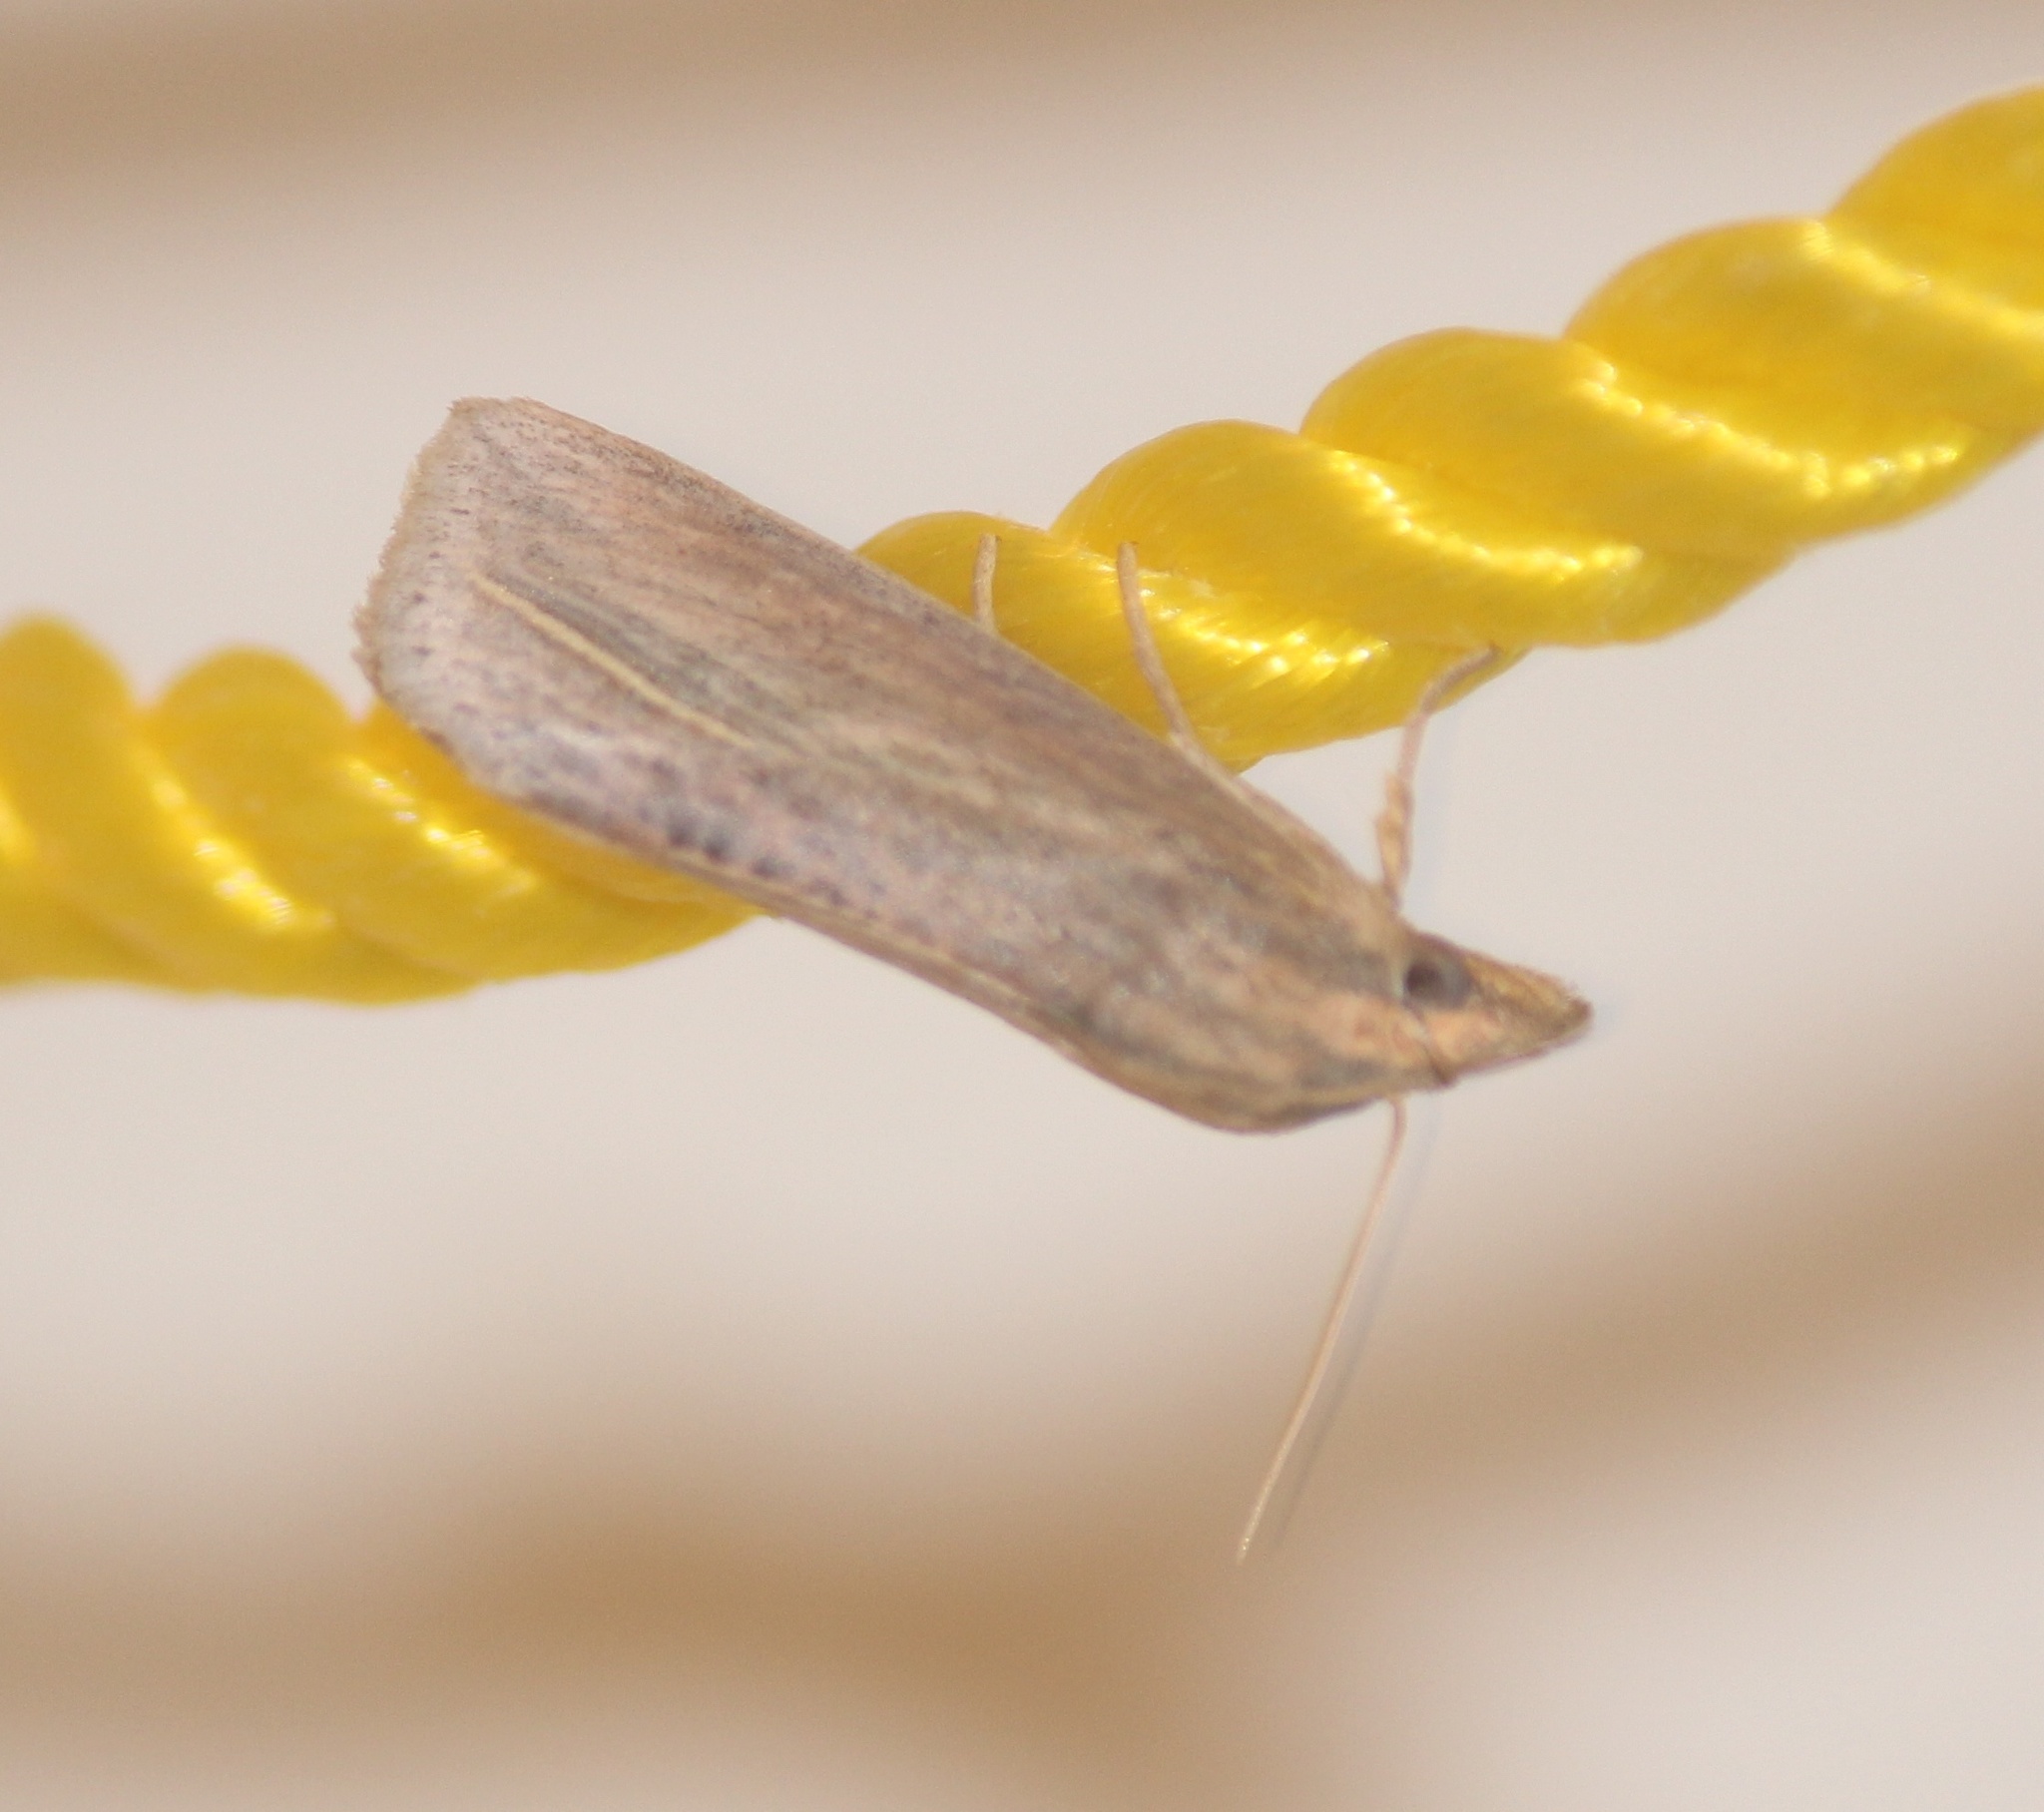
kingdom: Animalia
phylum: Arthropoda
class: Insecta
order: Lepidoptera
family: Erebidae
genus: Calyptra
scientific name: Calyptra
